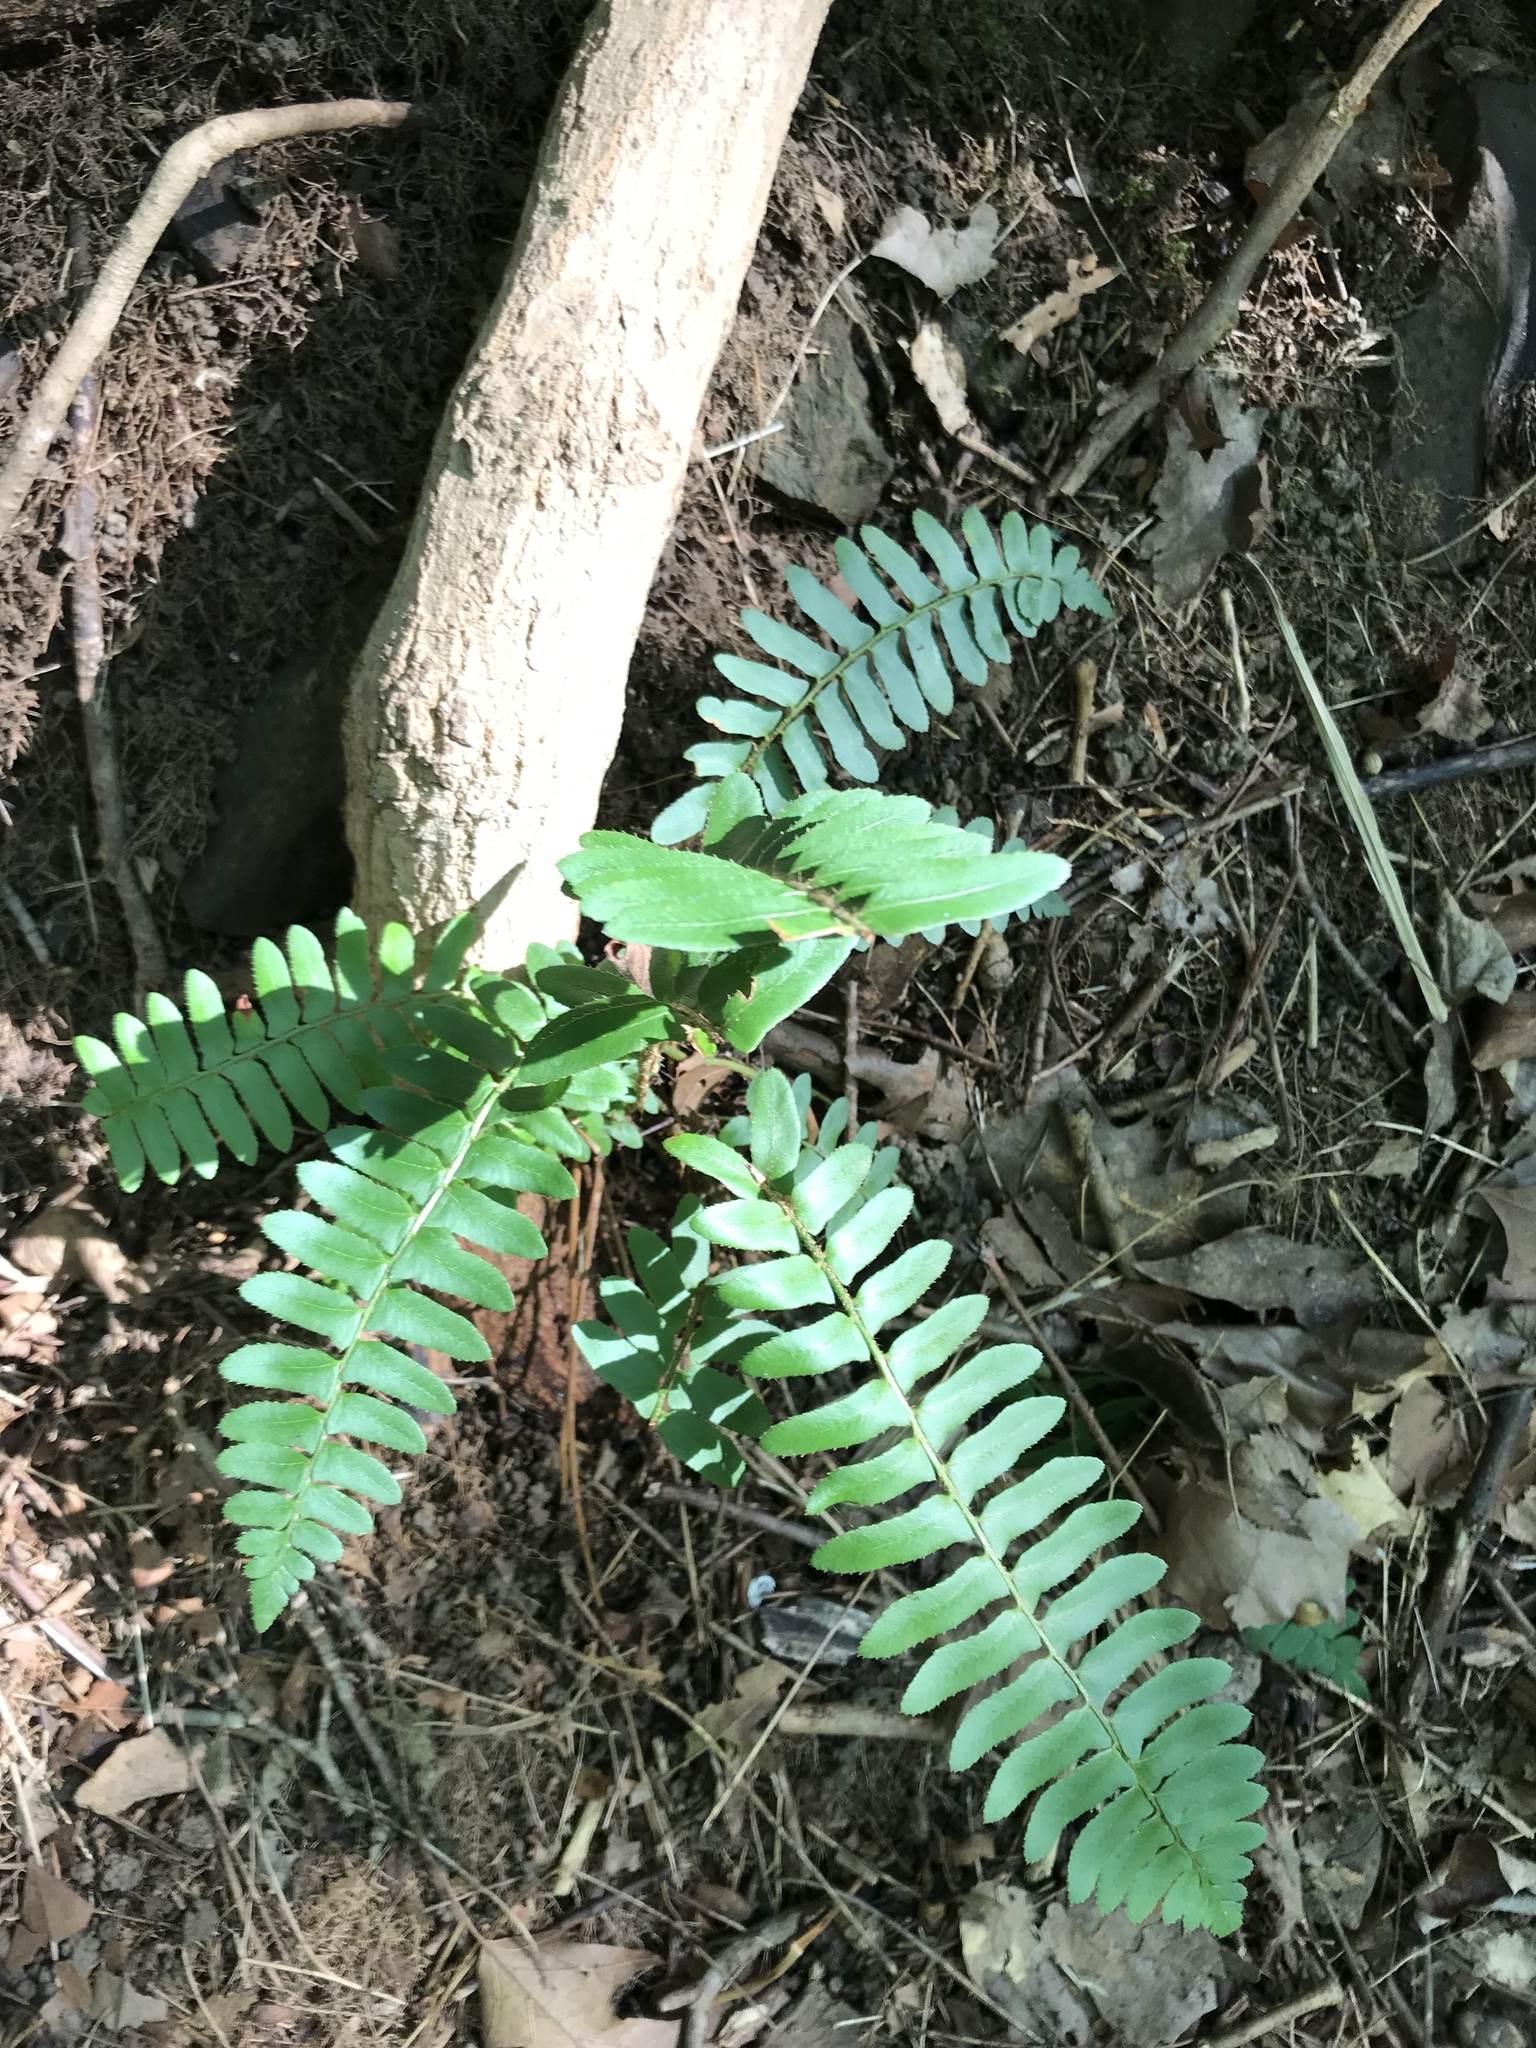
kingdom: Plantae
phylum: Tracheophyta
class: Polypodiopsida
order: Polypodiales
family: Dryopteridaceae
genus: Polystichum
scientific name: Polystichum acrostichoides
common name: Christmas fern
